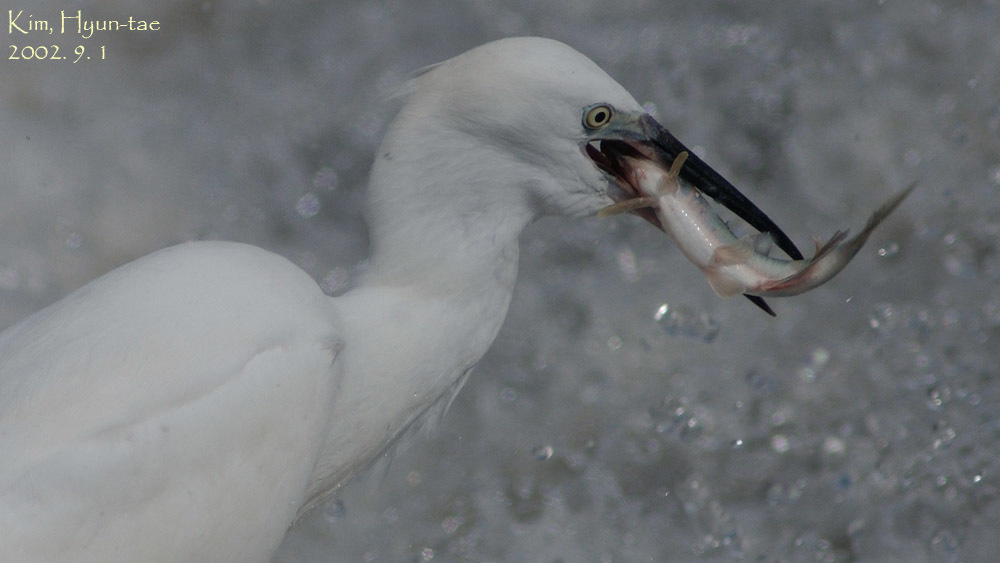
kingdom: Animalia
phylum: Chordata
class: Aves
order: Pelecaniformes
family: Ardeidae
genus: Egretta
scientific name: Egretta garzetta
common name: Little egret
